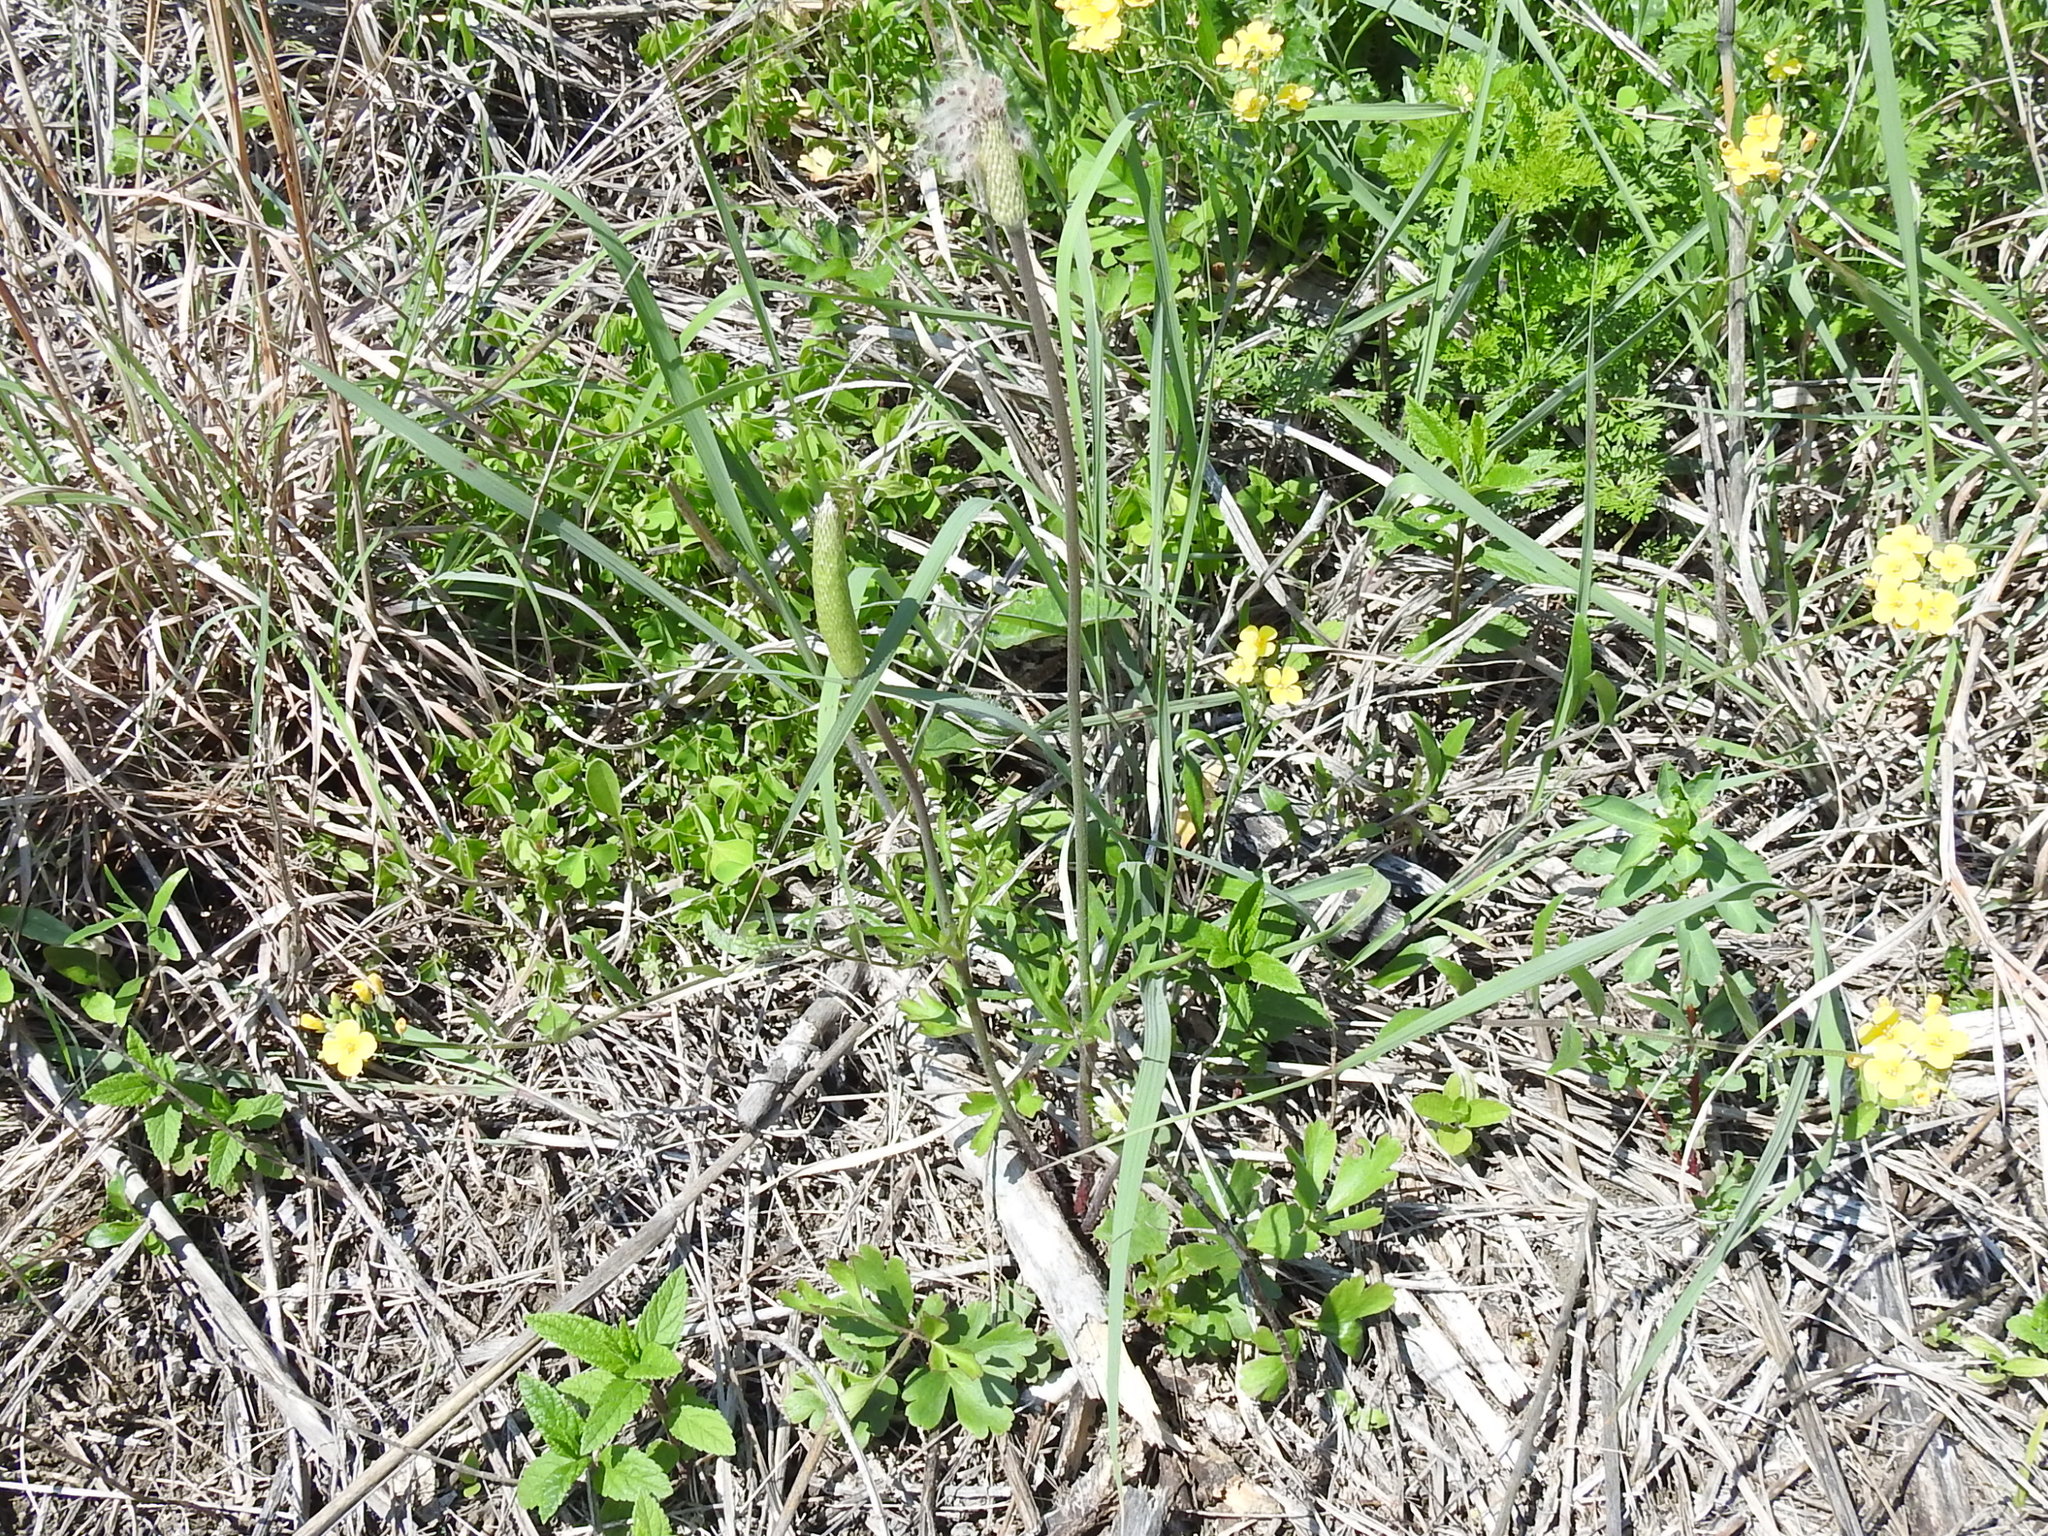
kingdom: Plantae
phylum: Tracheophyta
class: Magnoliopsida
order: Ranunculales
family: Ranunculaceae
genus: Anemone
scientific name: Anemone berlandieri
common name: Ten-petal anemone
